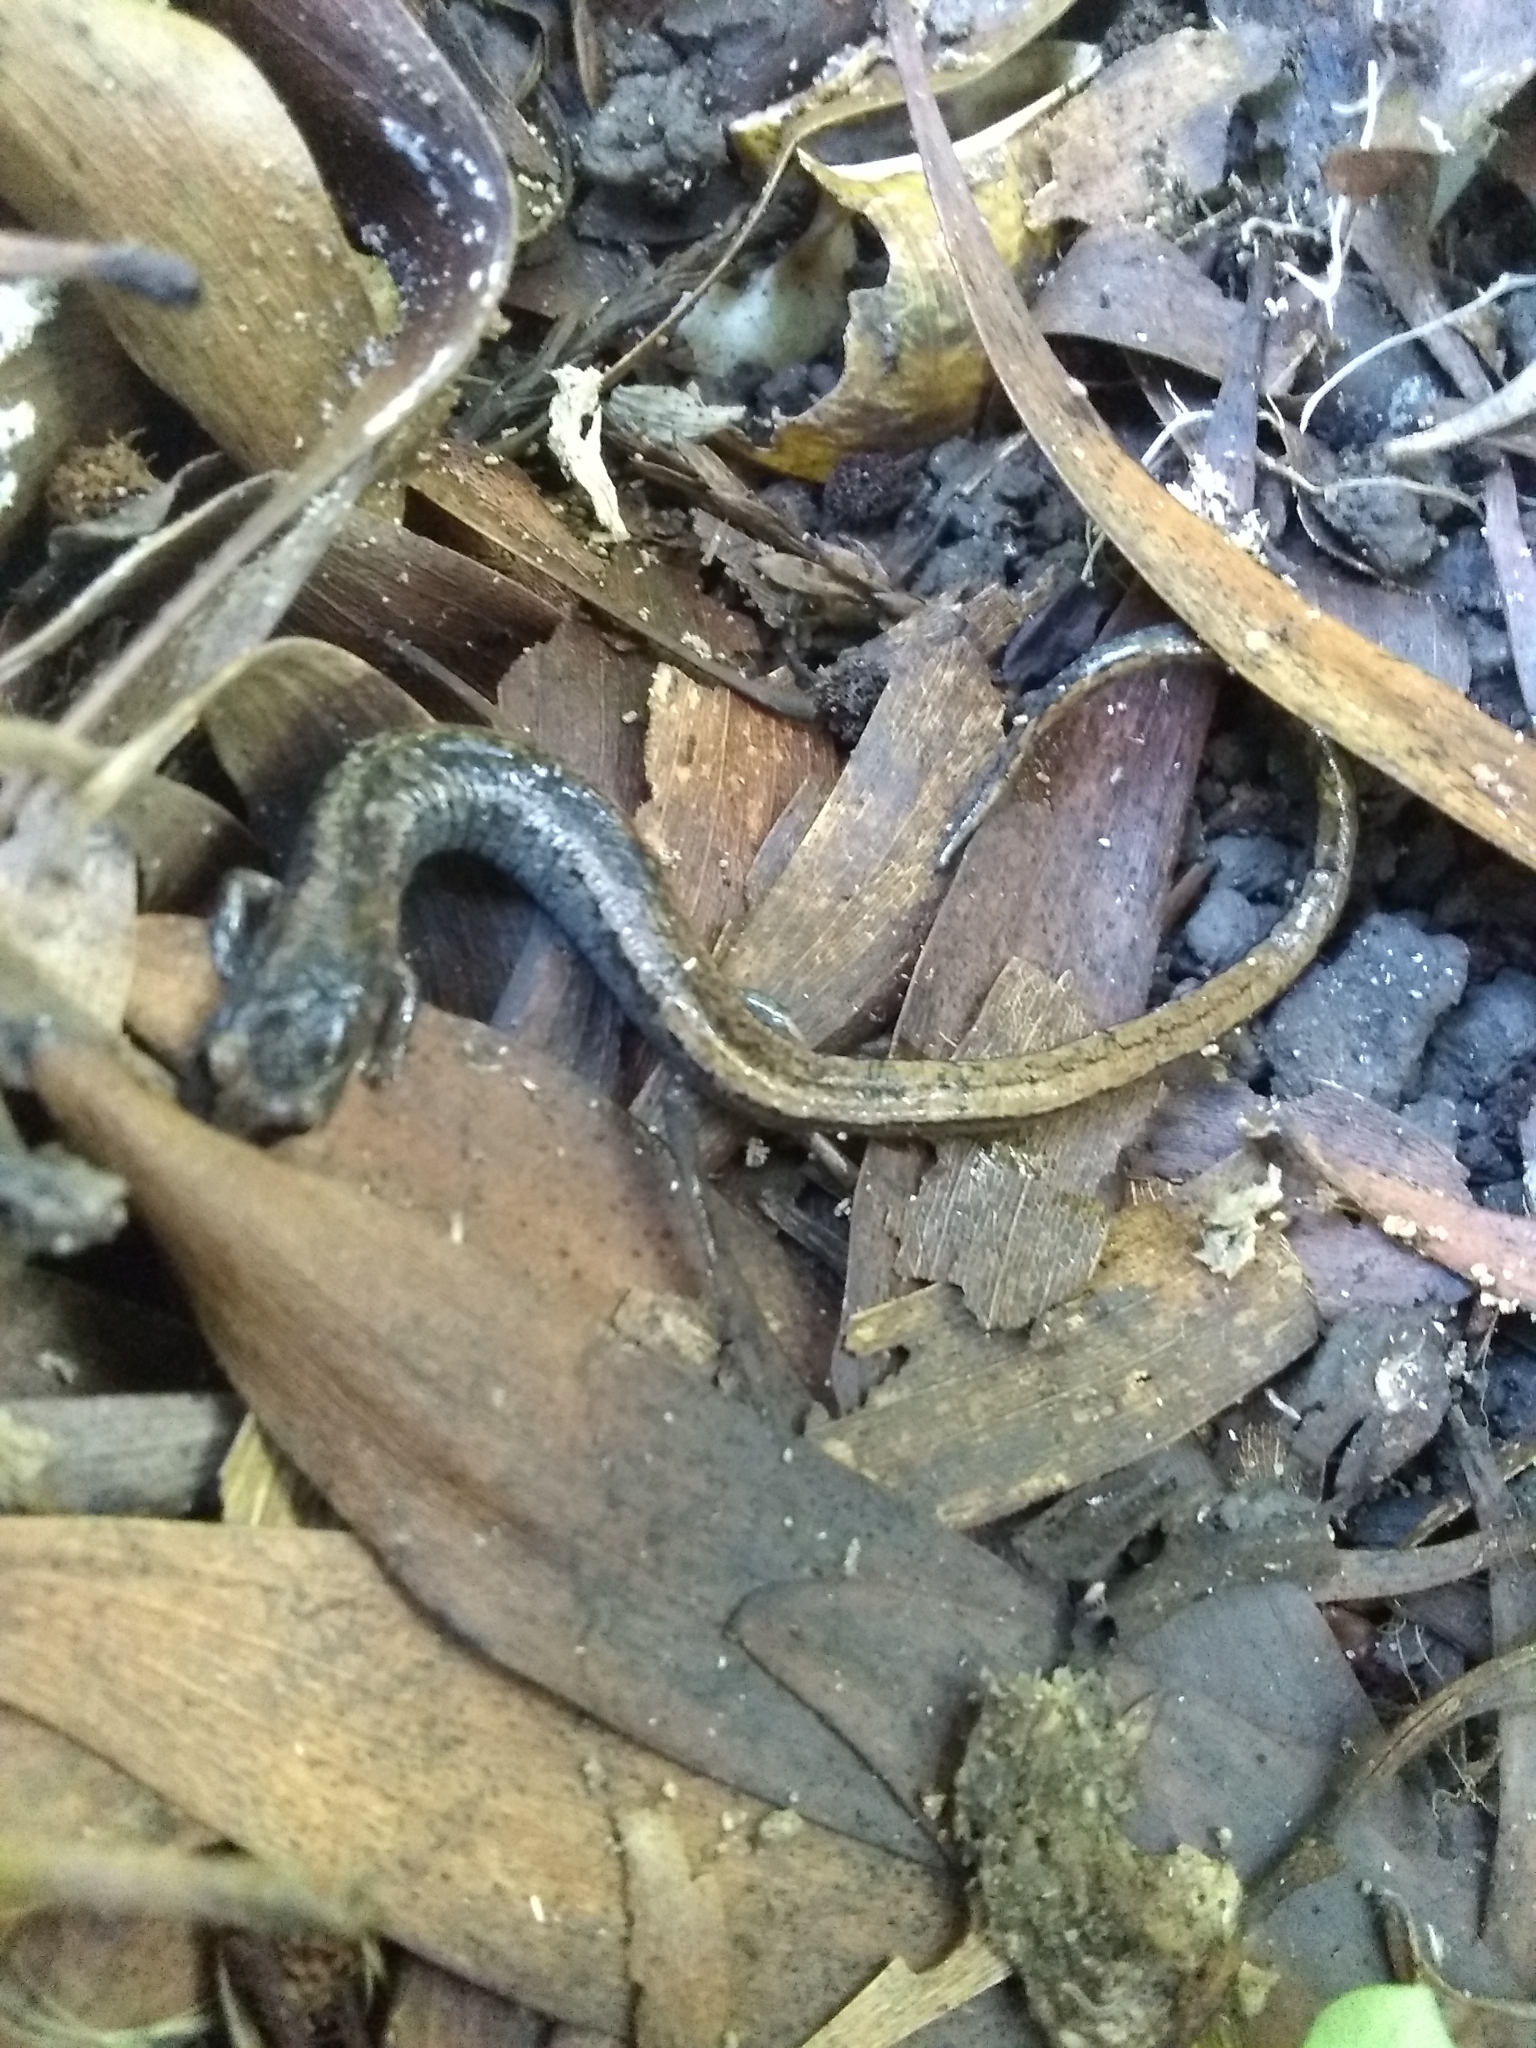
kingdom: Animalia
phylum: Chordata
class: Amphibia
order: Caudata
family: Plethodontidae
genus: Batrachoseps
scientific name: Batrachoseps attenuatus
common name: California slender salamander
